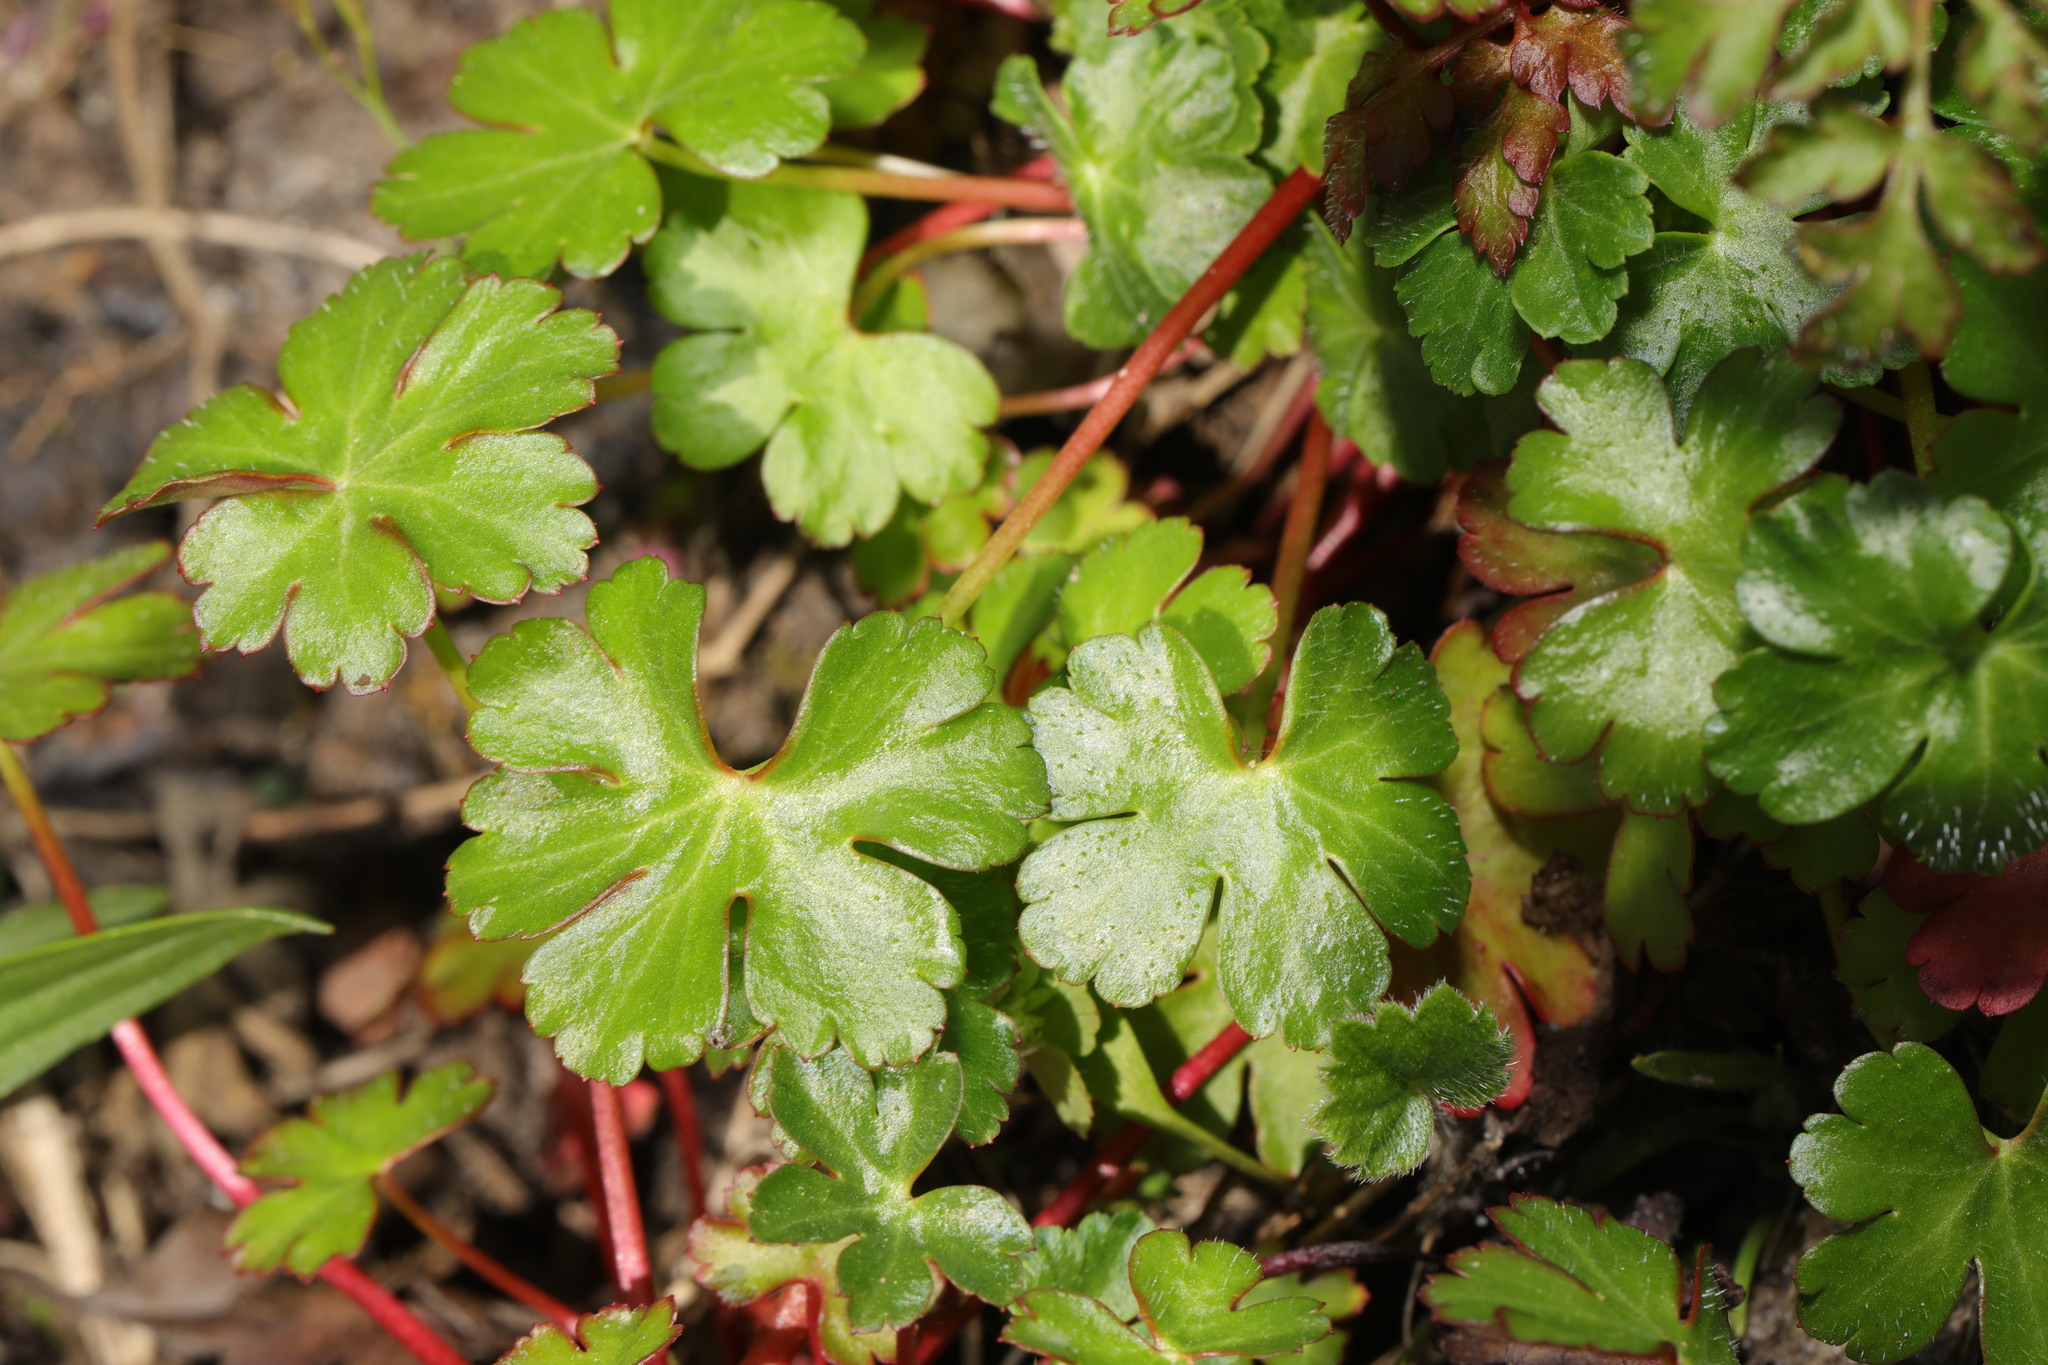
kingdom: Plantae
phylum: Tracheophyta
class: Magnoliopsida
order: Geraniales
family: Geraniaceae
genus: Geranium
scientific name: Geranium lucidum
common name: Shining crane's-bill
